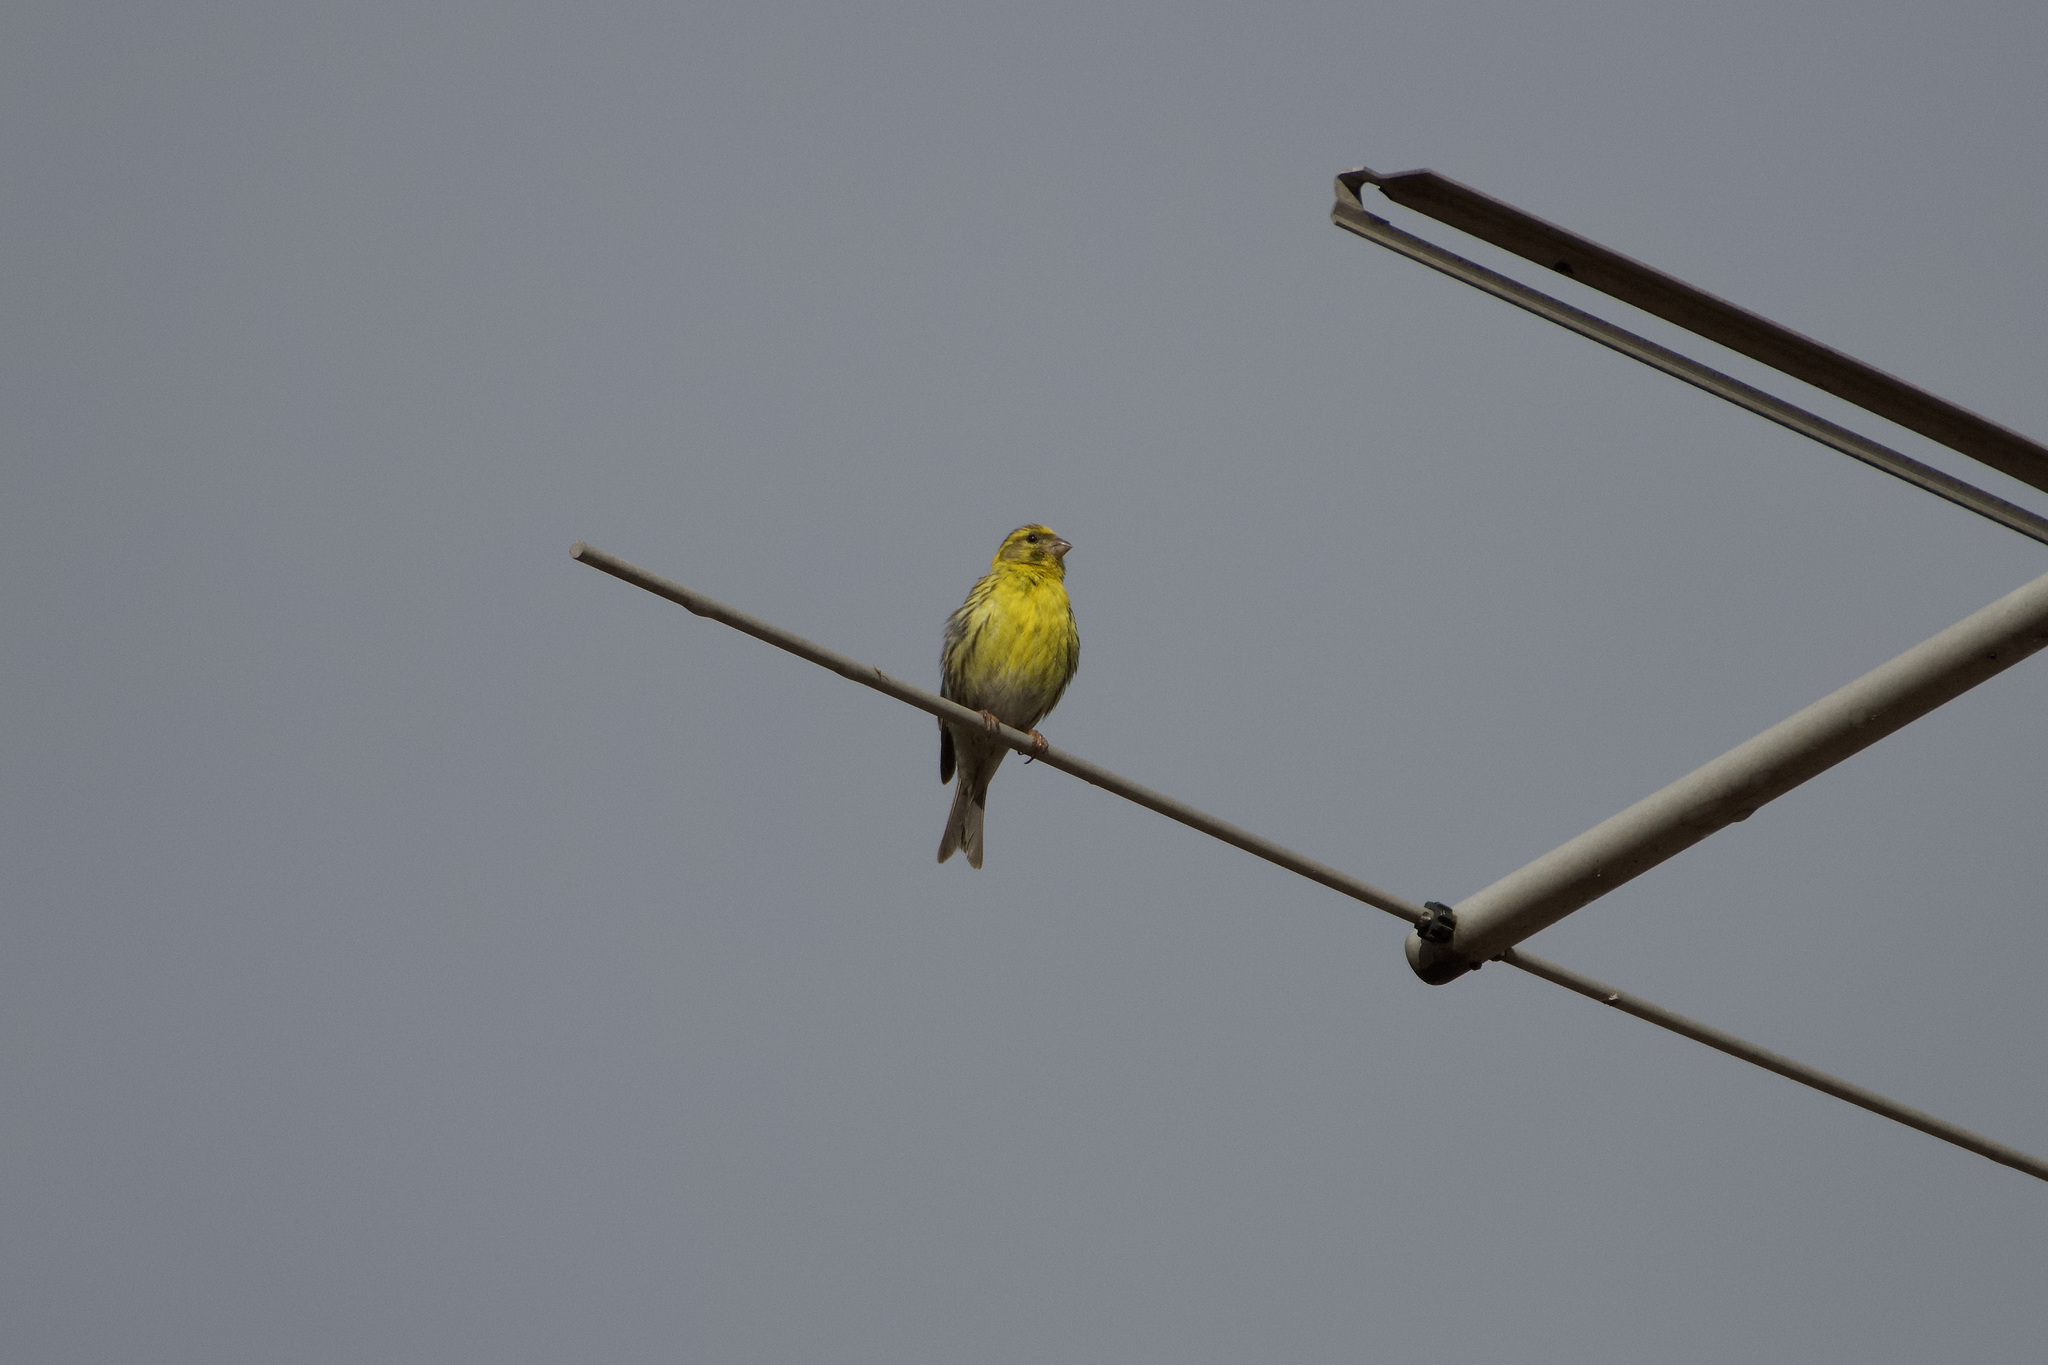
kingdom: Animalia
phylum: Chordata
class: Aves
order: Passeriformes
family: Fringillidae
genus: Serinus
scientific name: Serinus serinus
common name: European serin
